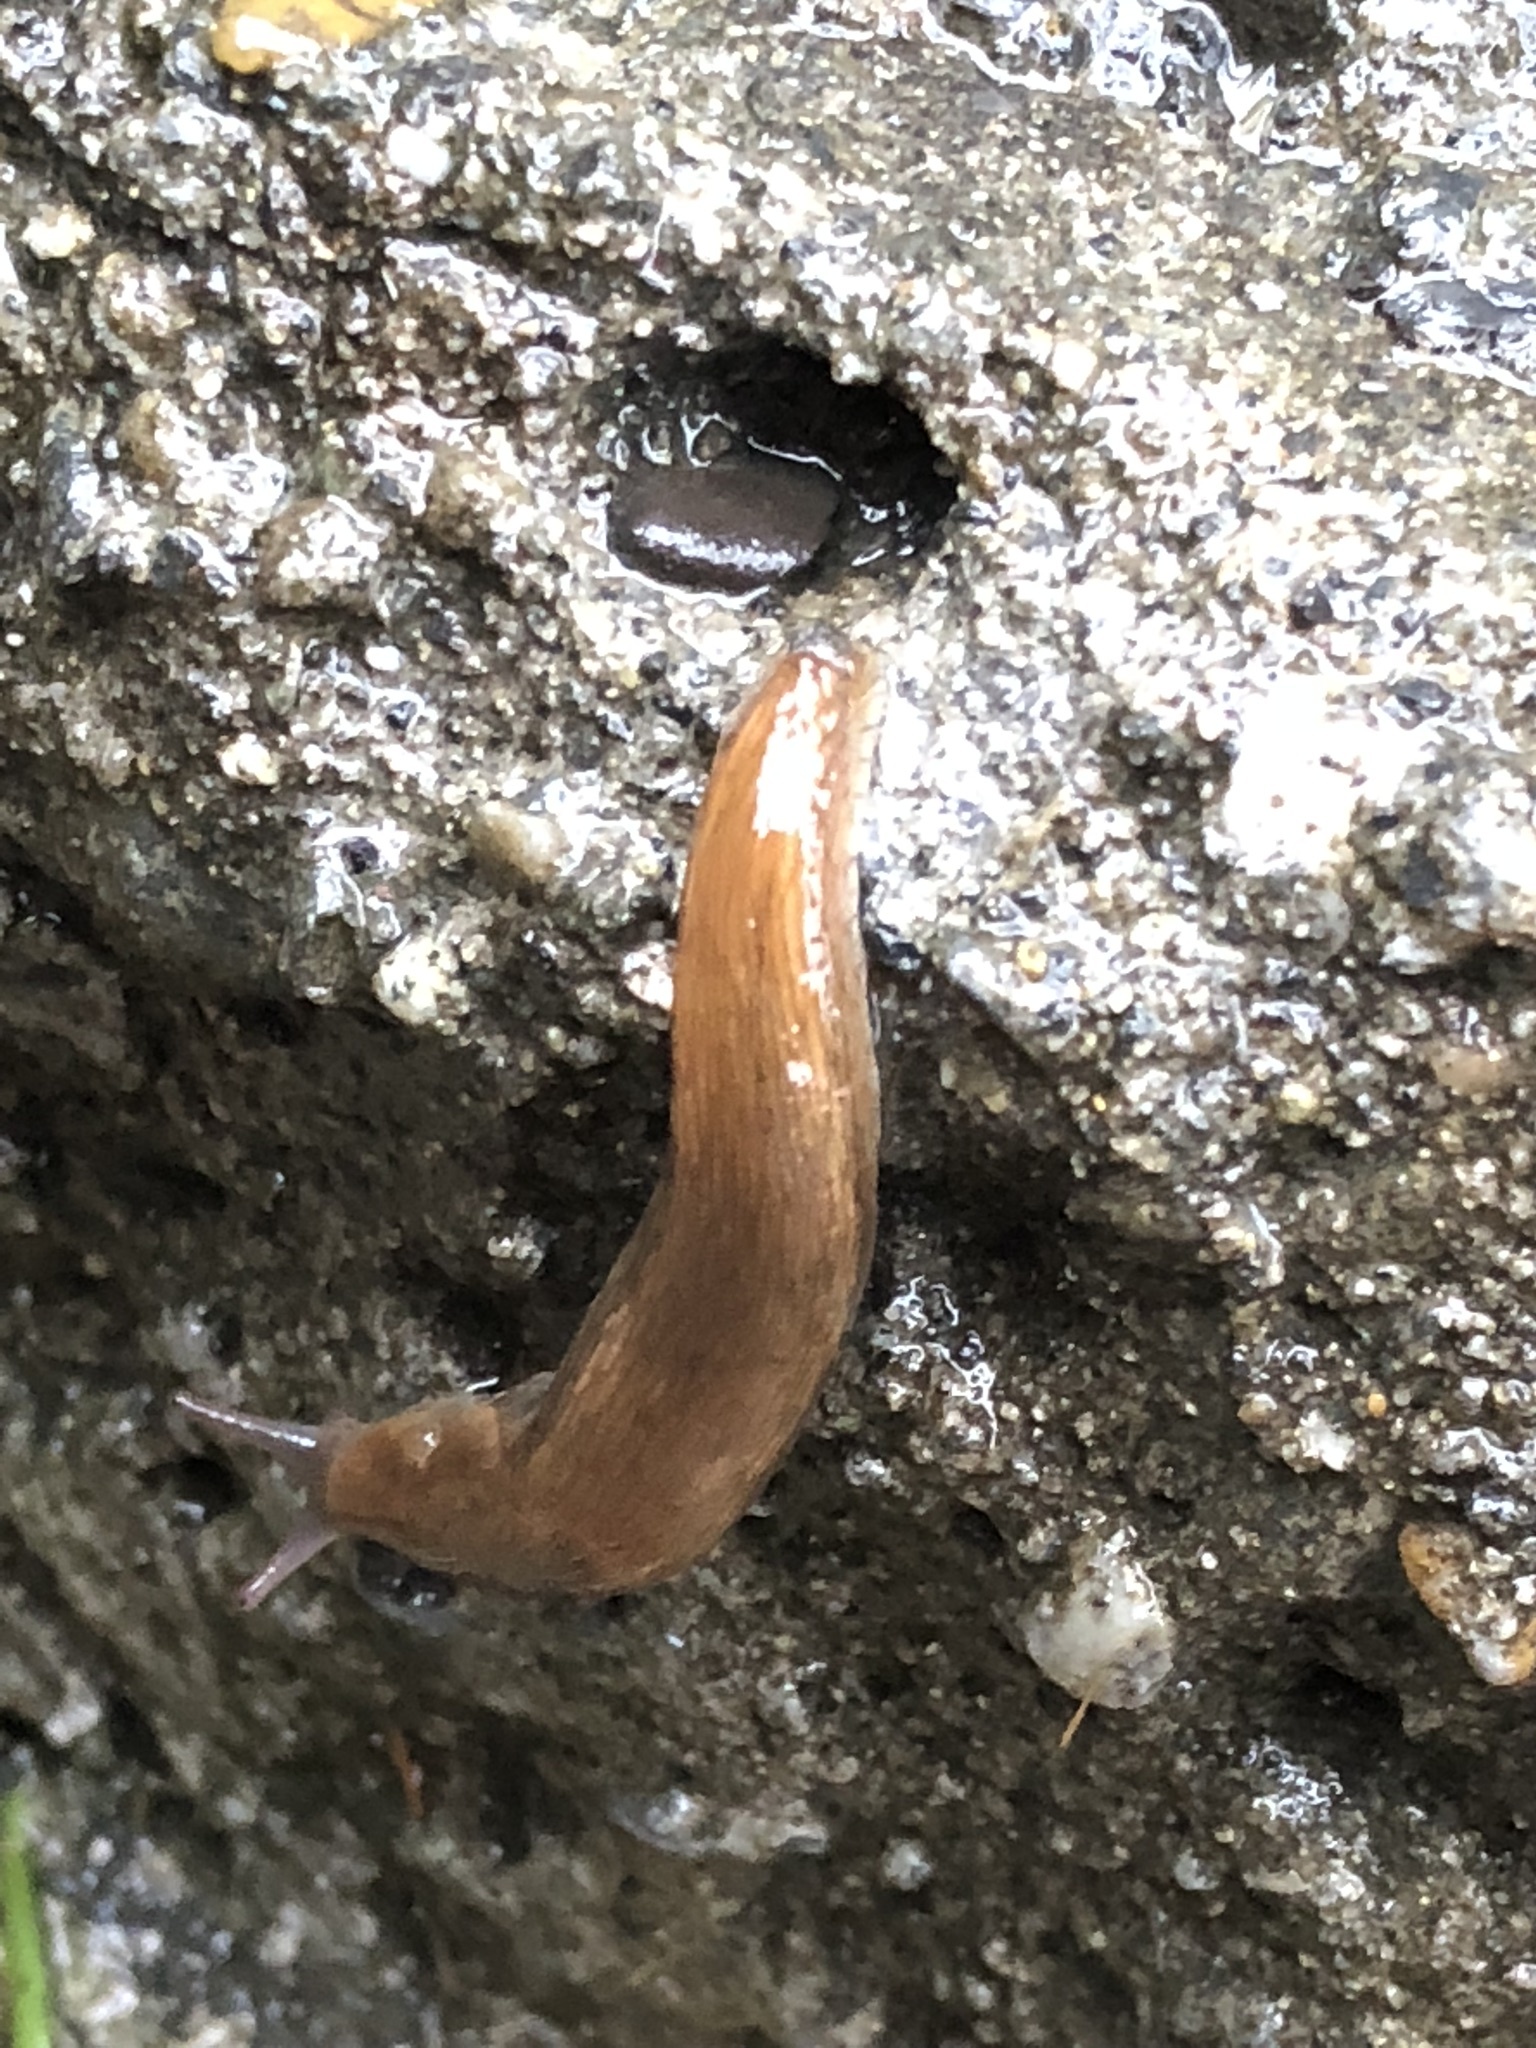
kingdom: Animalia
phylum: Mollusca
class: Gastropoda
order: Stylommatophora
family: Arionidae
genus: Mesarion
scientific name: Mesarion
